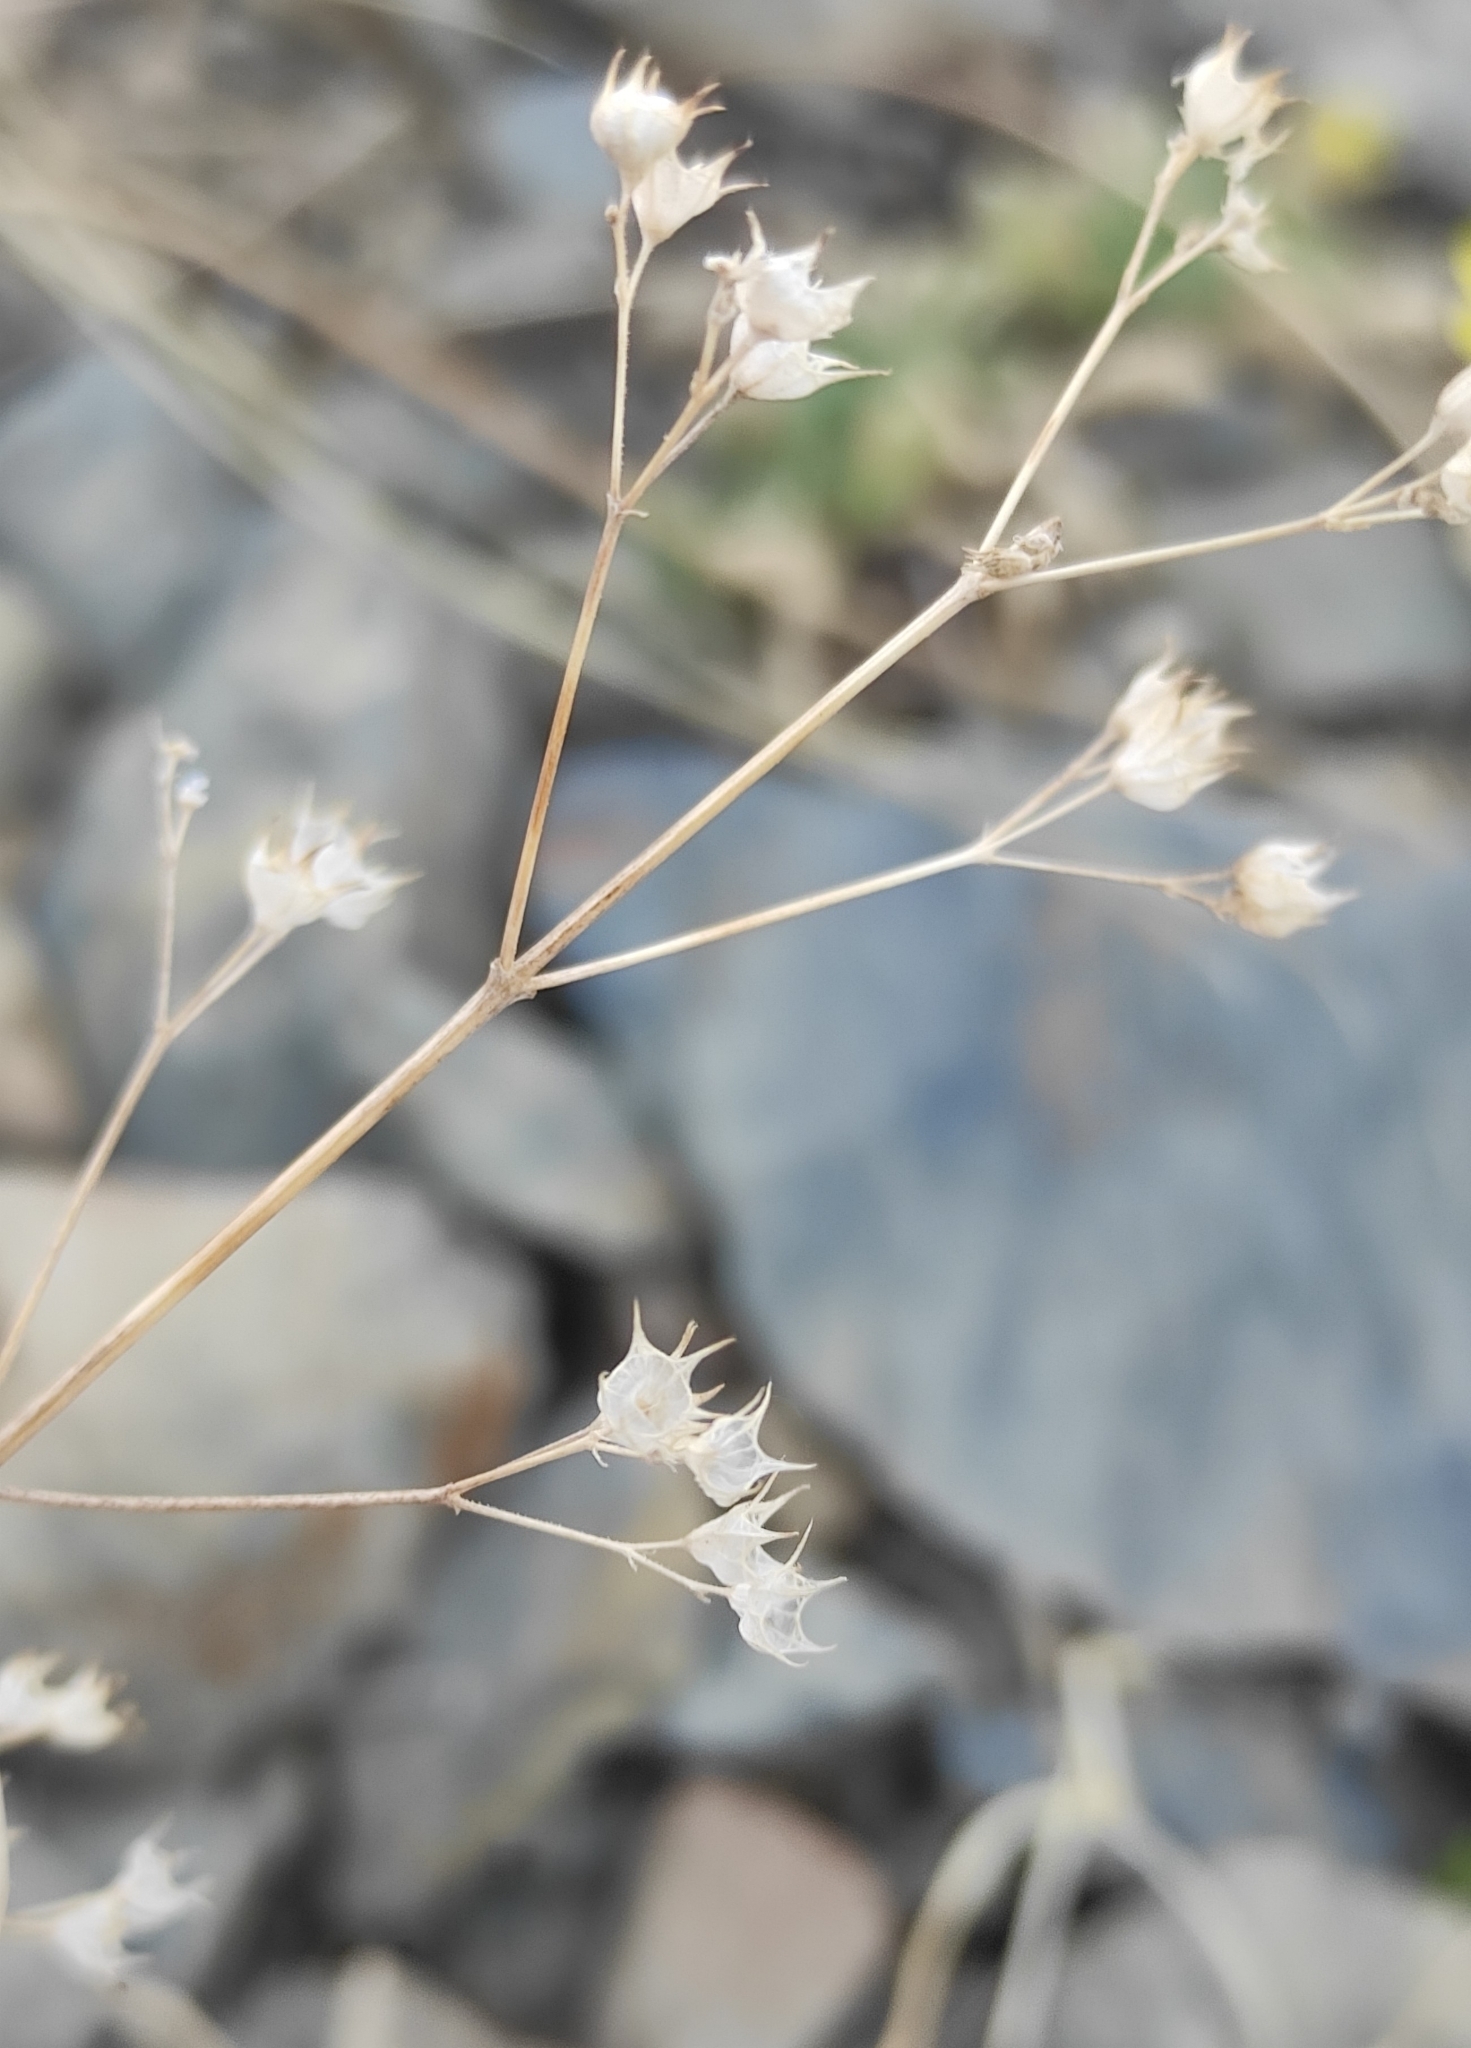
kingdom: Plantae
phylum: Tracheophyta
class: Magnoliopsida
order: Lamiales
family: Lamiaceae
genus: Amethystea
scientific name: Amethystea caerulea
